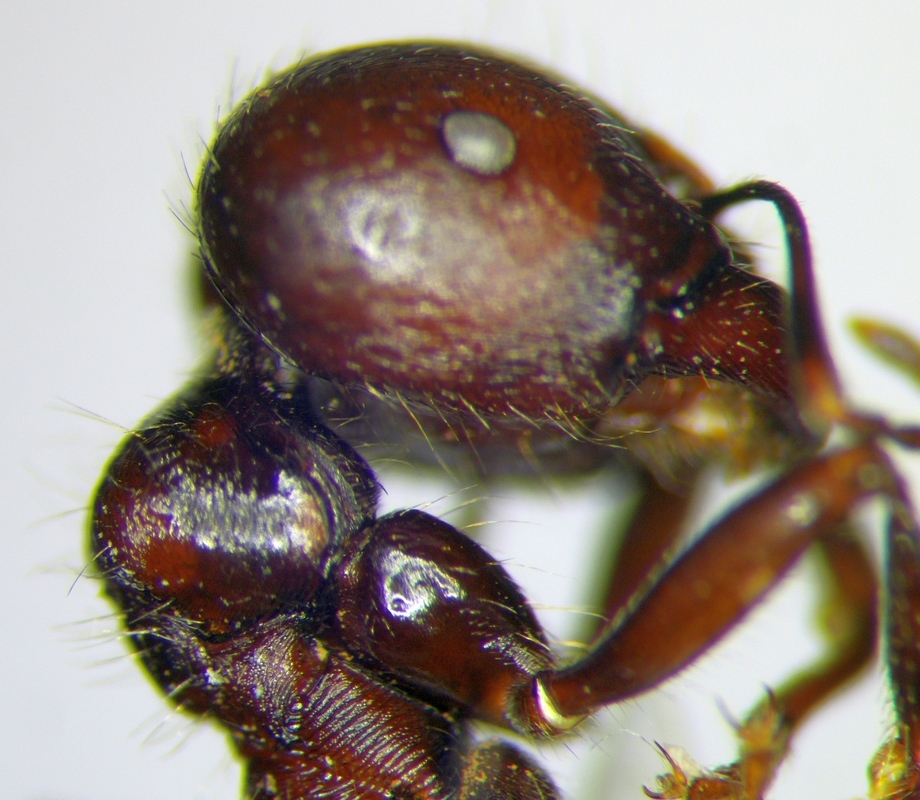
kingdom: Animalia
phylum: Arthropoda
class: Insecta
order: Hymenoptera
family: Formicidae
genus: Messor
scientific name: Messor orientalis
